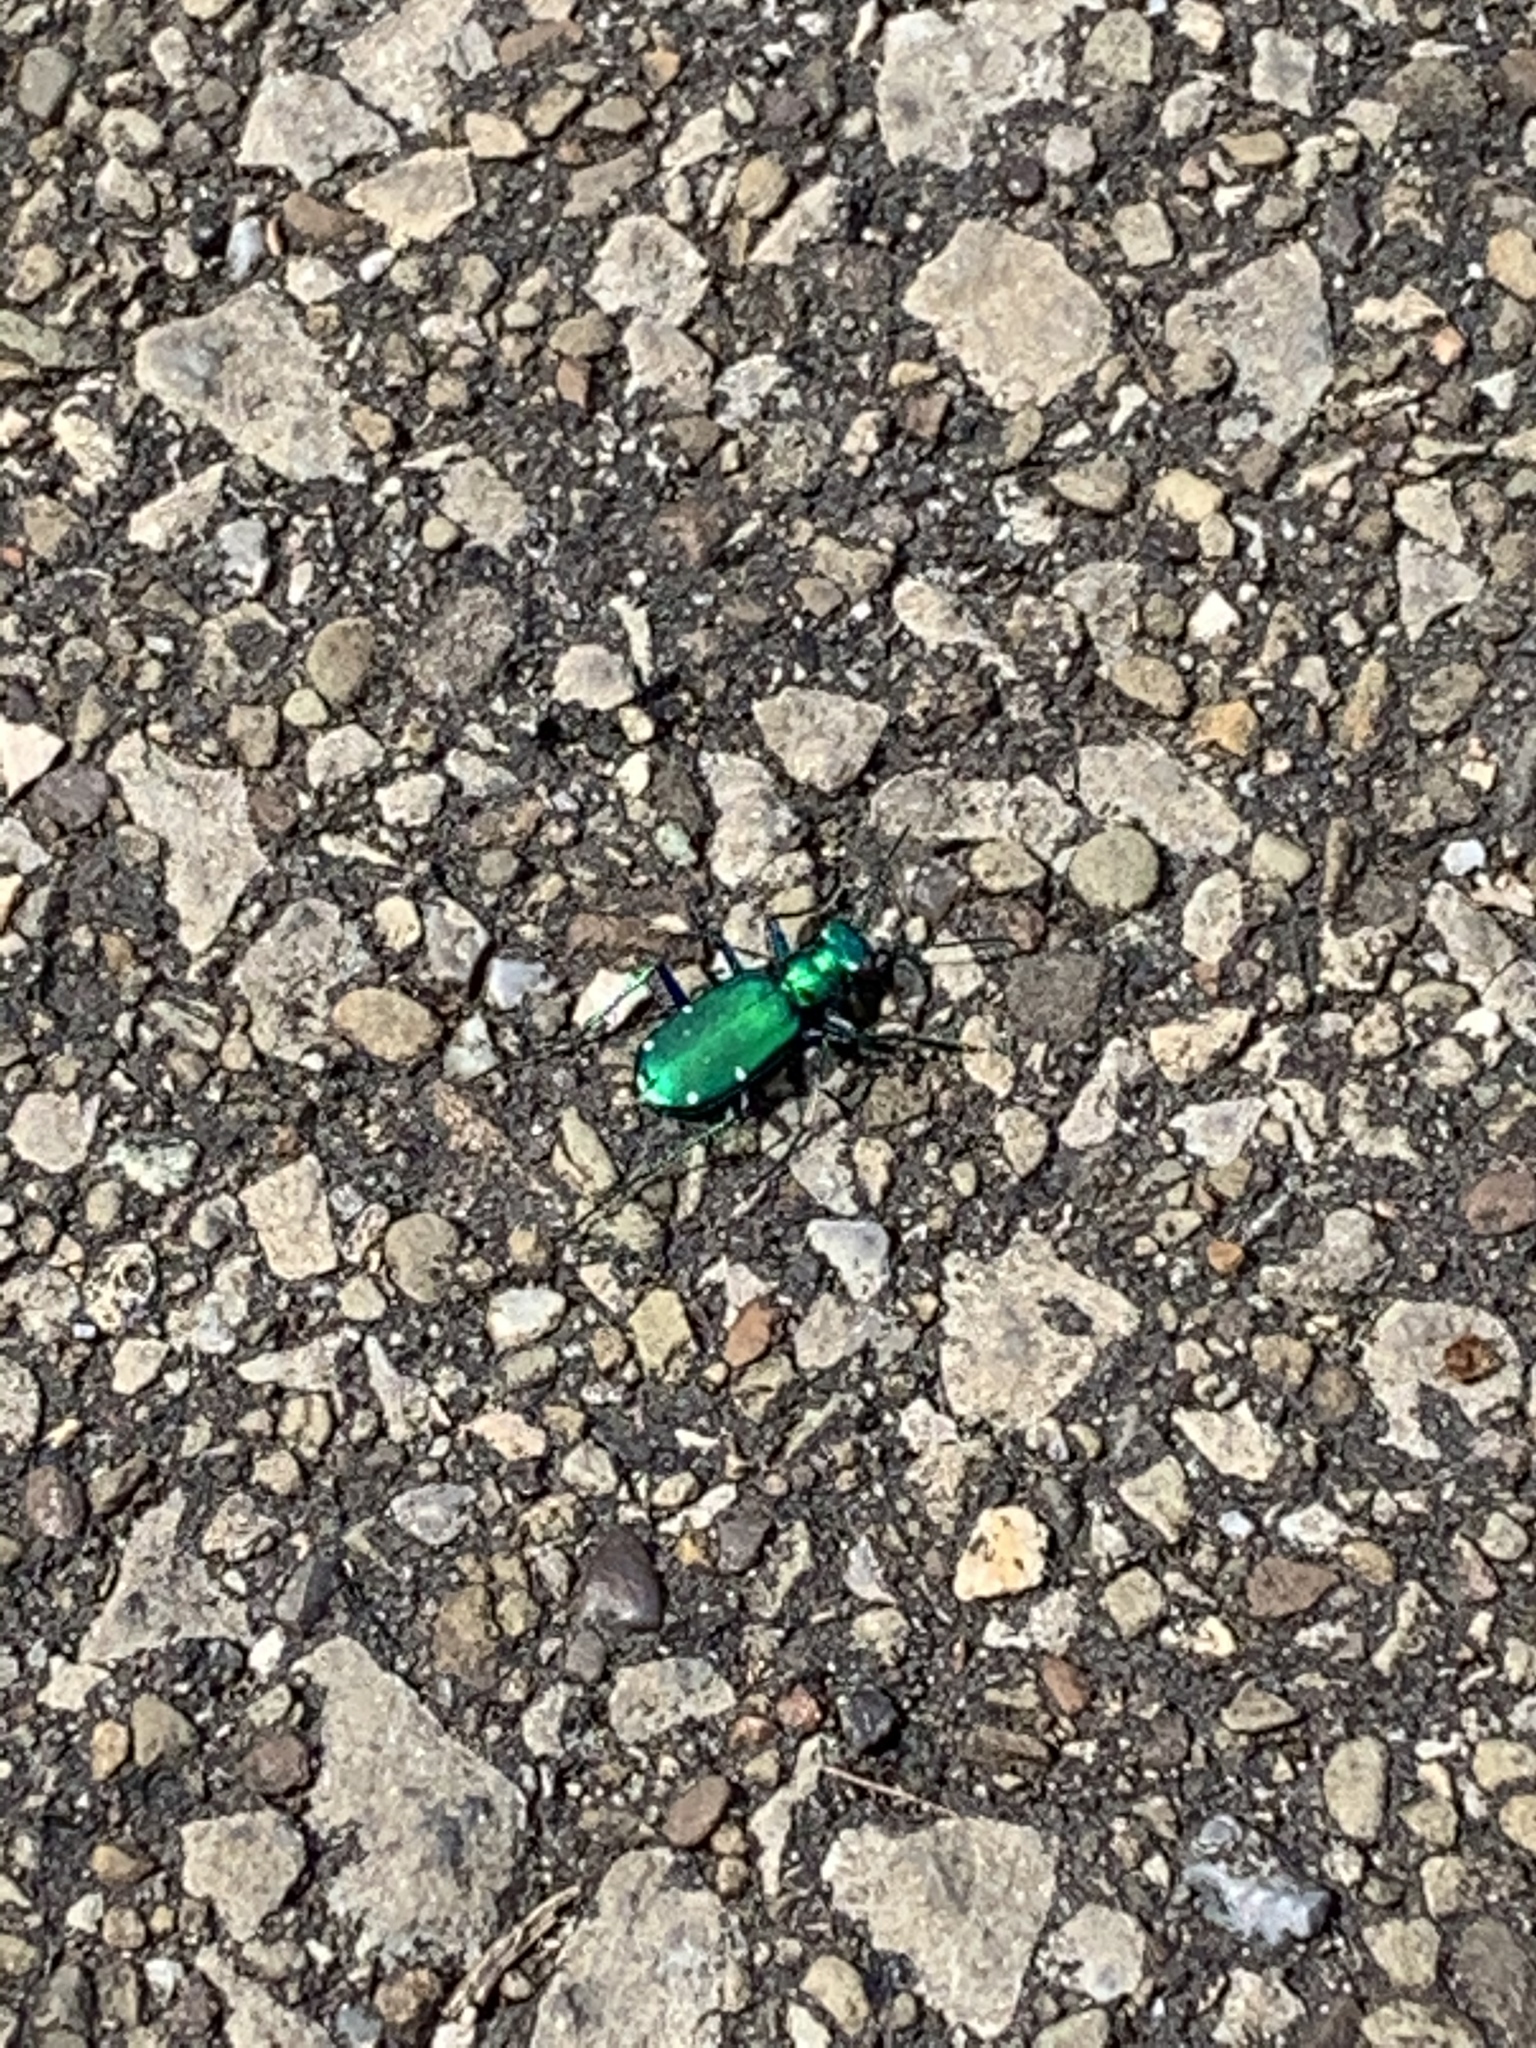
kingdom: Animalia
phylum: Arthropoda
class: Insecta
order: Coleoptera
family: Carabidae
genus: Cicindela
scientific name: Cicindela sexguttata
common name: Six-spotted tiger beetle
